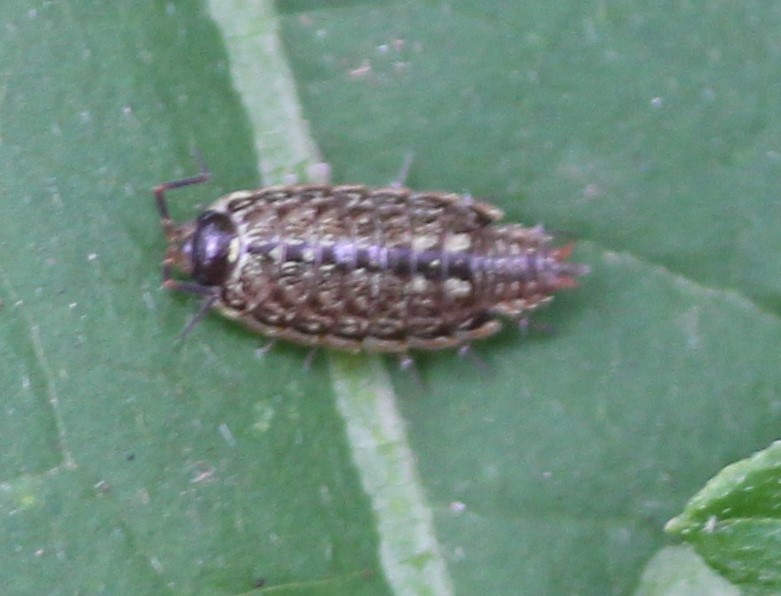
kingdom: Animalia
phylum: Arthropoda
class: Malacostraca
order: Isopoda
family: Philosciidae
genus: Philoscia
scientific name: Philoscia muscorum
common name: Common striped woodlouse
